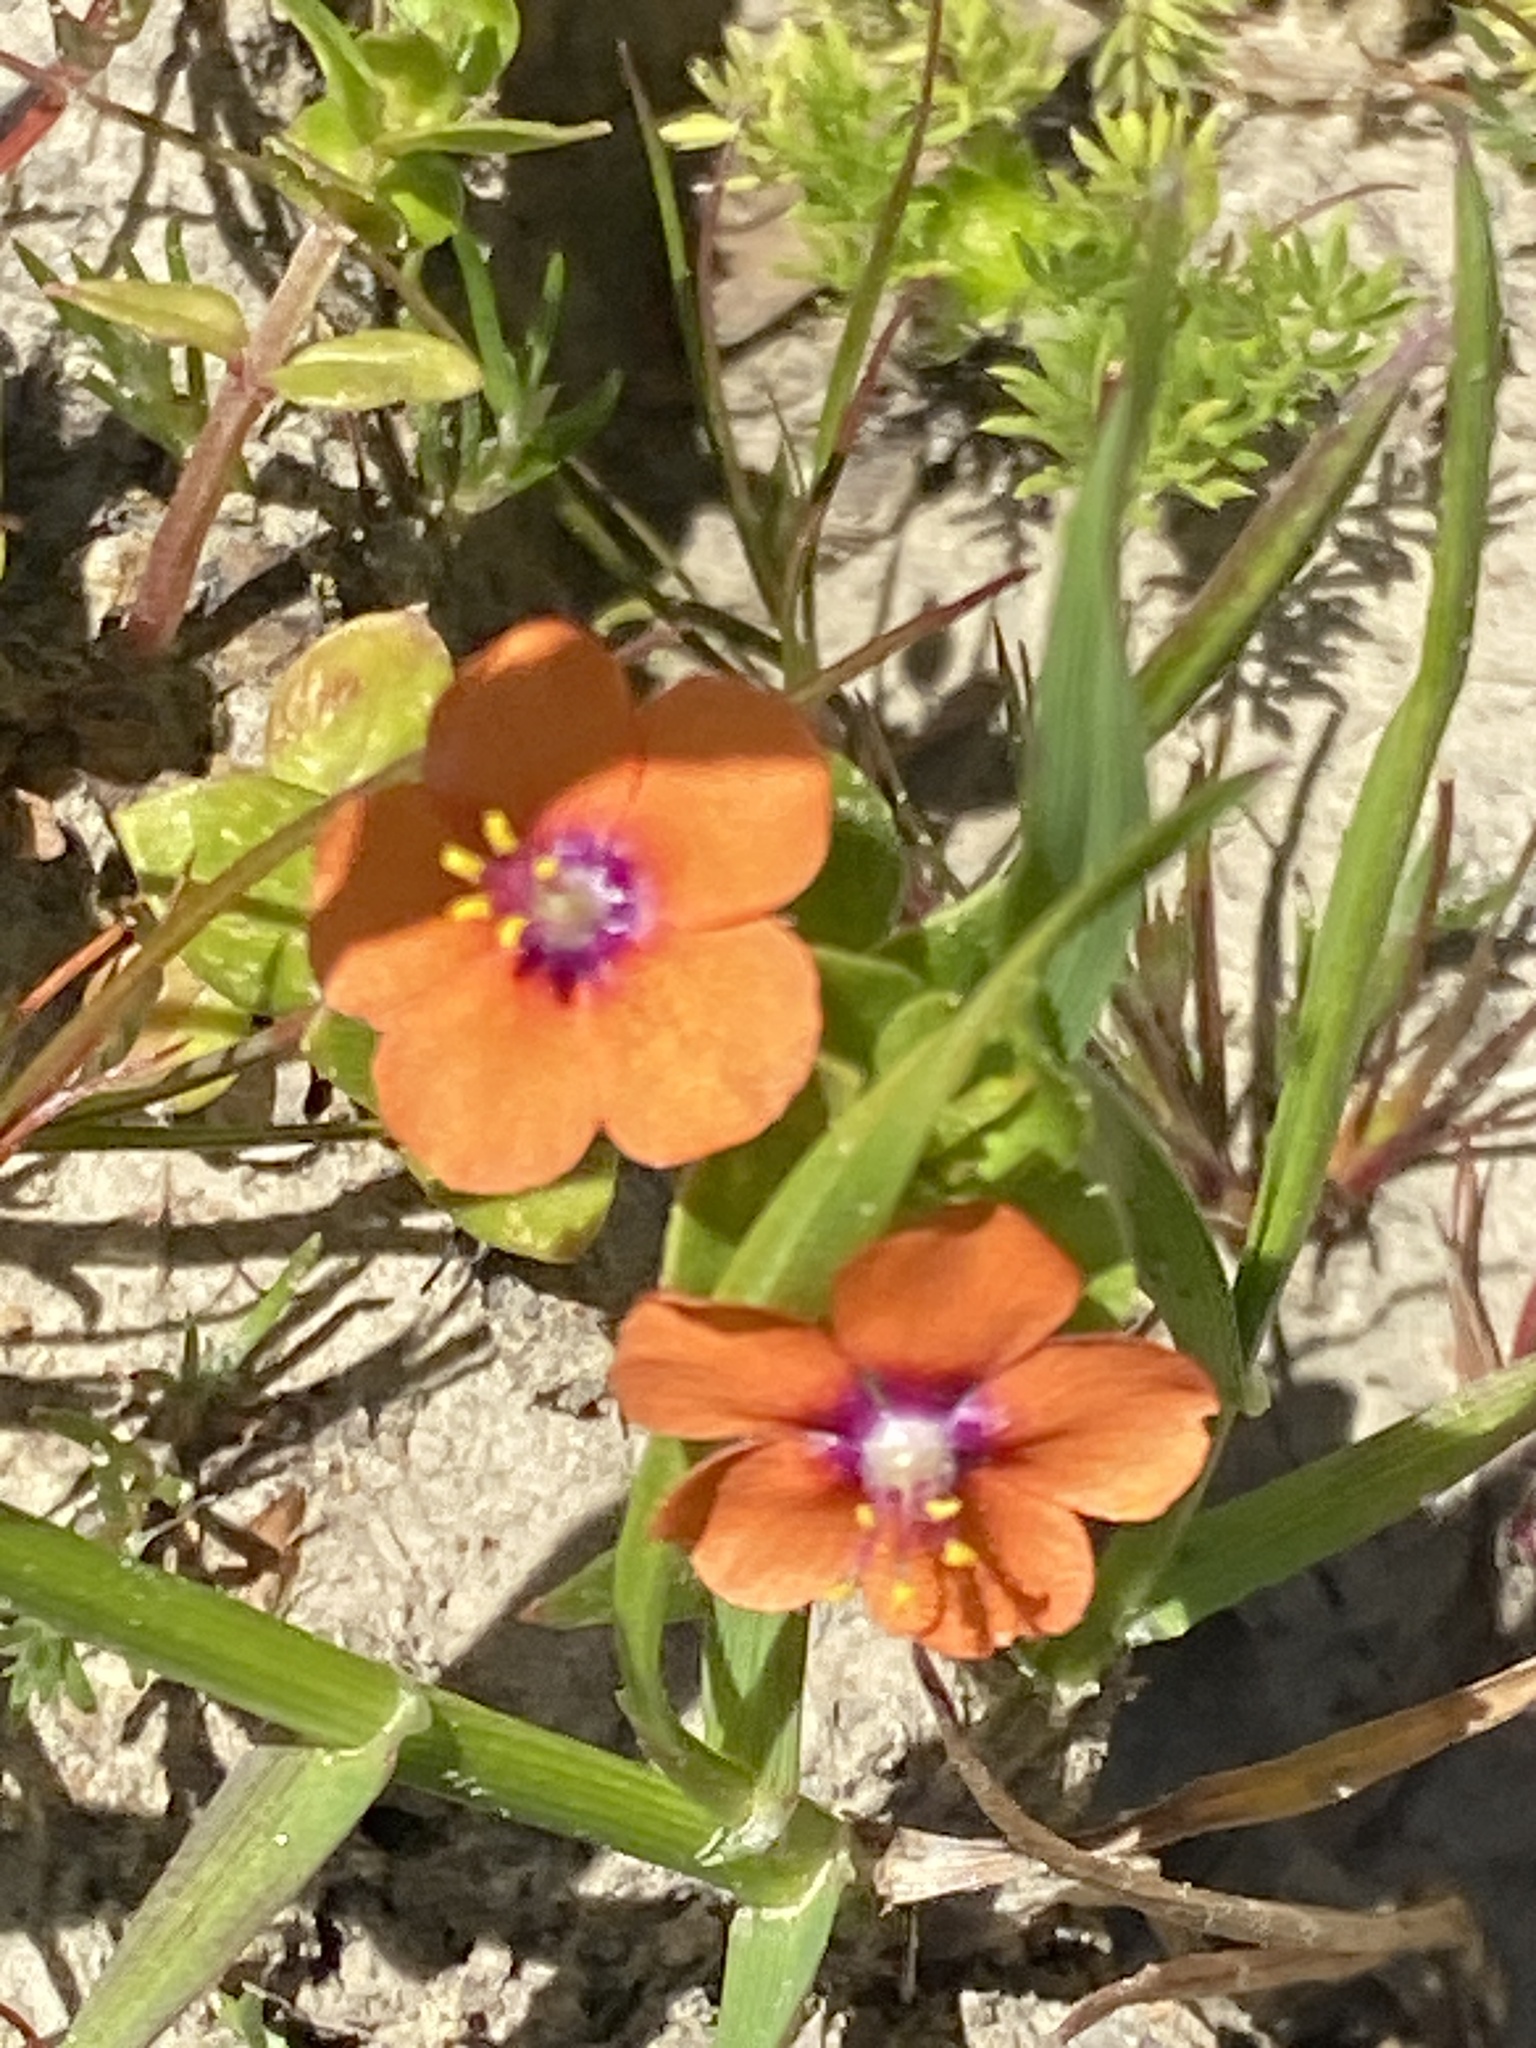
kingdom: Plantae
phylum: Tracheophyta
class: Magnoliopsida
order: Ericales
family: Primulaceae
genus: Lysimachia
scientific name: Lysimachia arvensis
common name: Scarlet pimpernel
